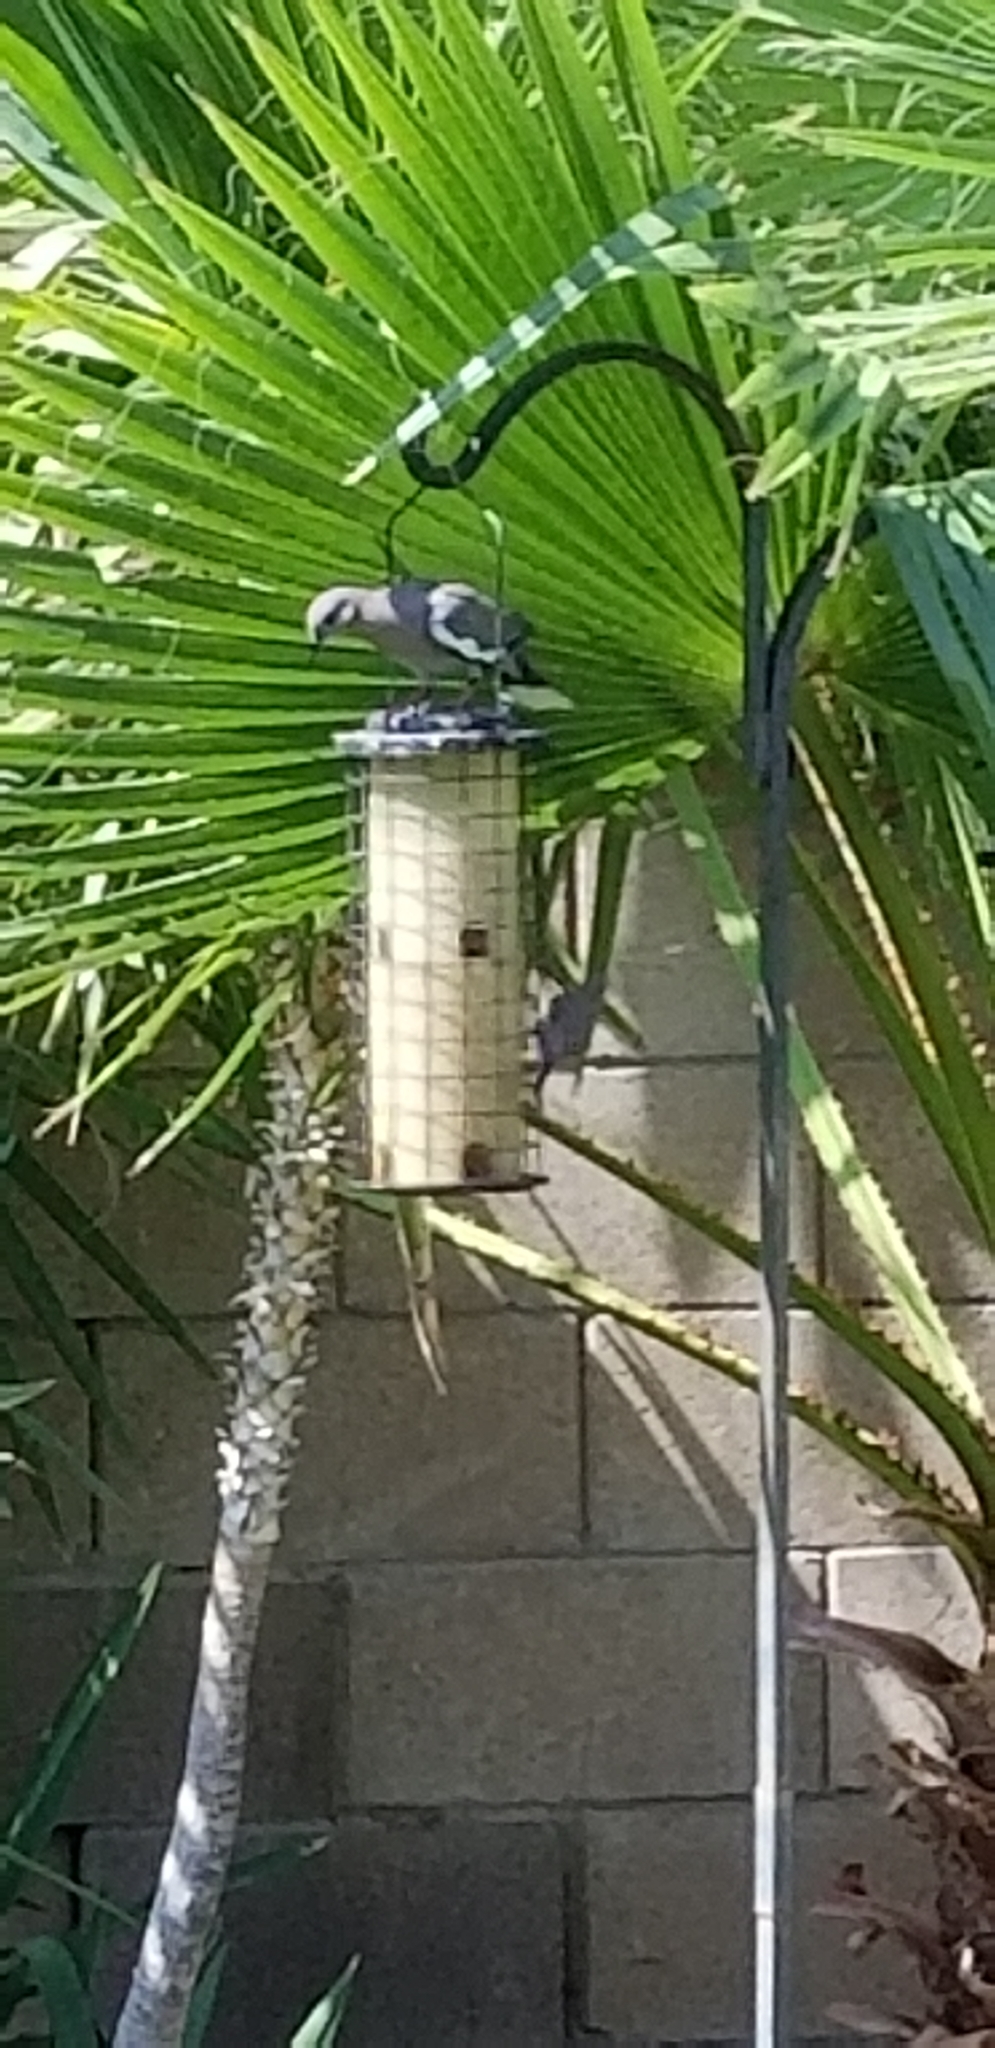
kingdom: Animalia
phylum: Chordata
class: Aves
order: Columbiformes
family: Columbidae
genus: Zenaida
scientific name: Zenaida asiatica
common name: White-winged dove
